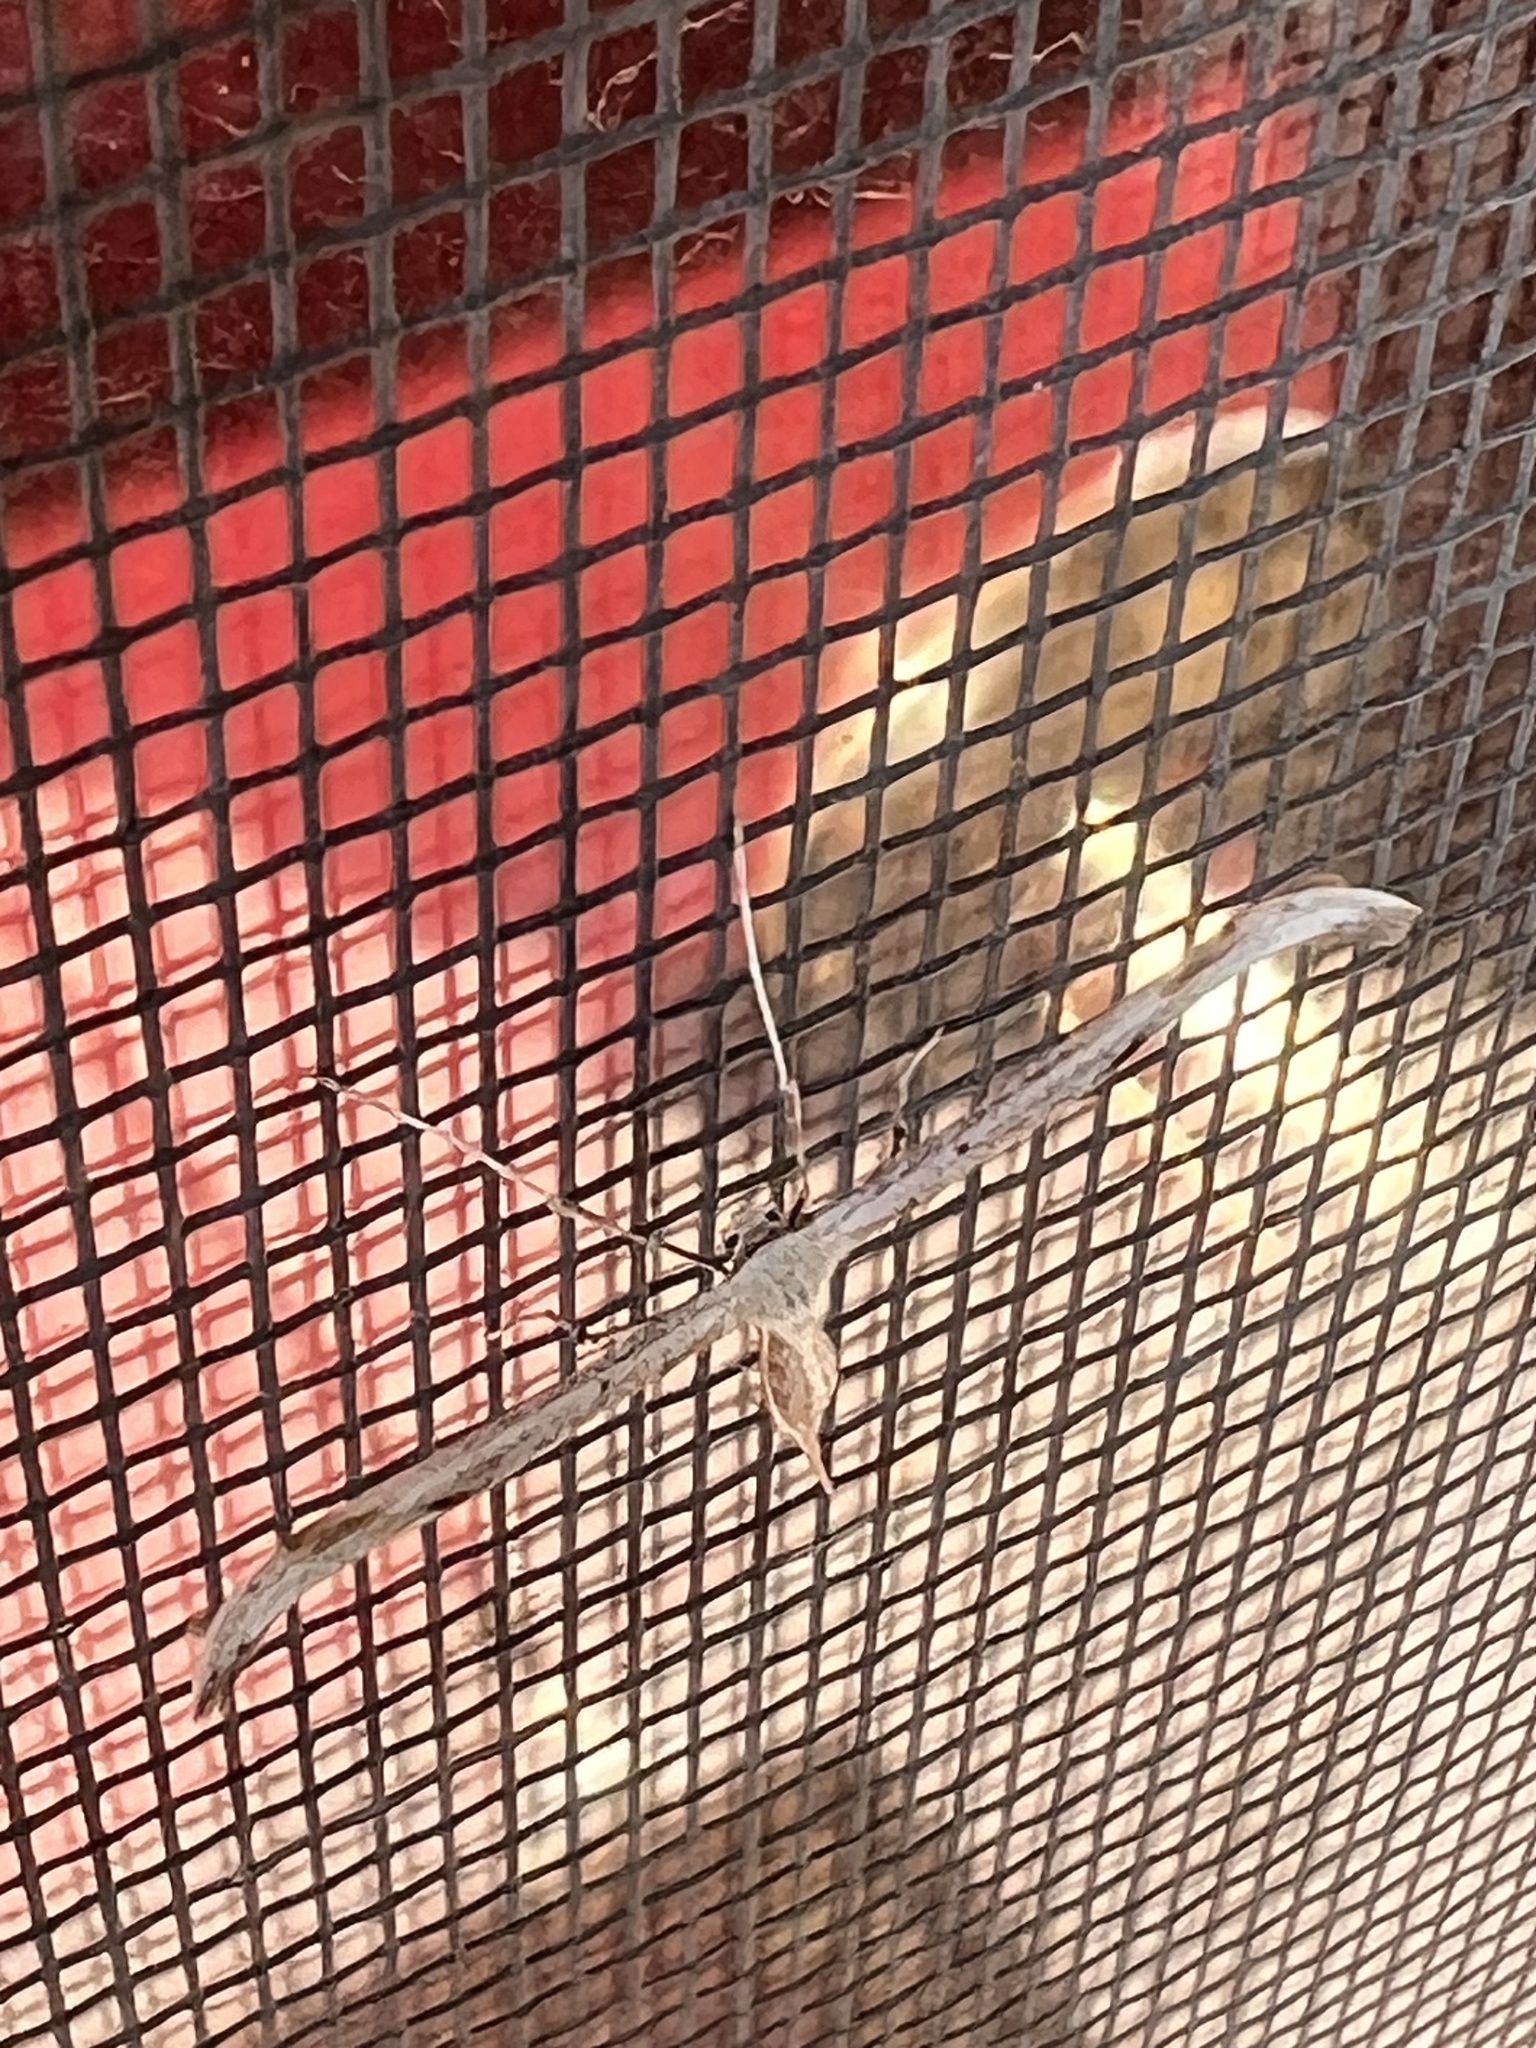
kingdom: Animalia
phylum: Arthropoda
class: Insecta
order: Lepidoptera
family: Pterophoridae
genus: Emmelina
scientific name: Emmelina monodactyla
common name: Common plume
